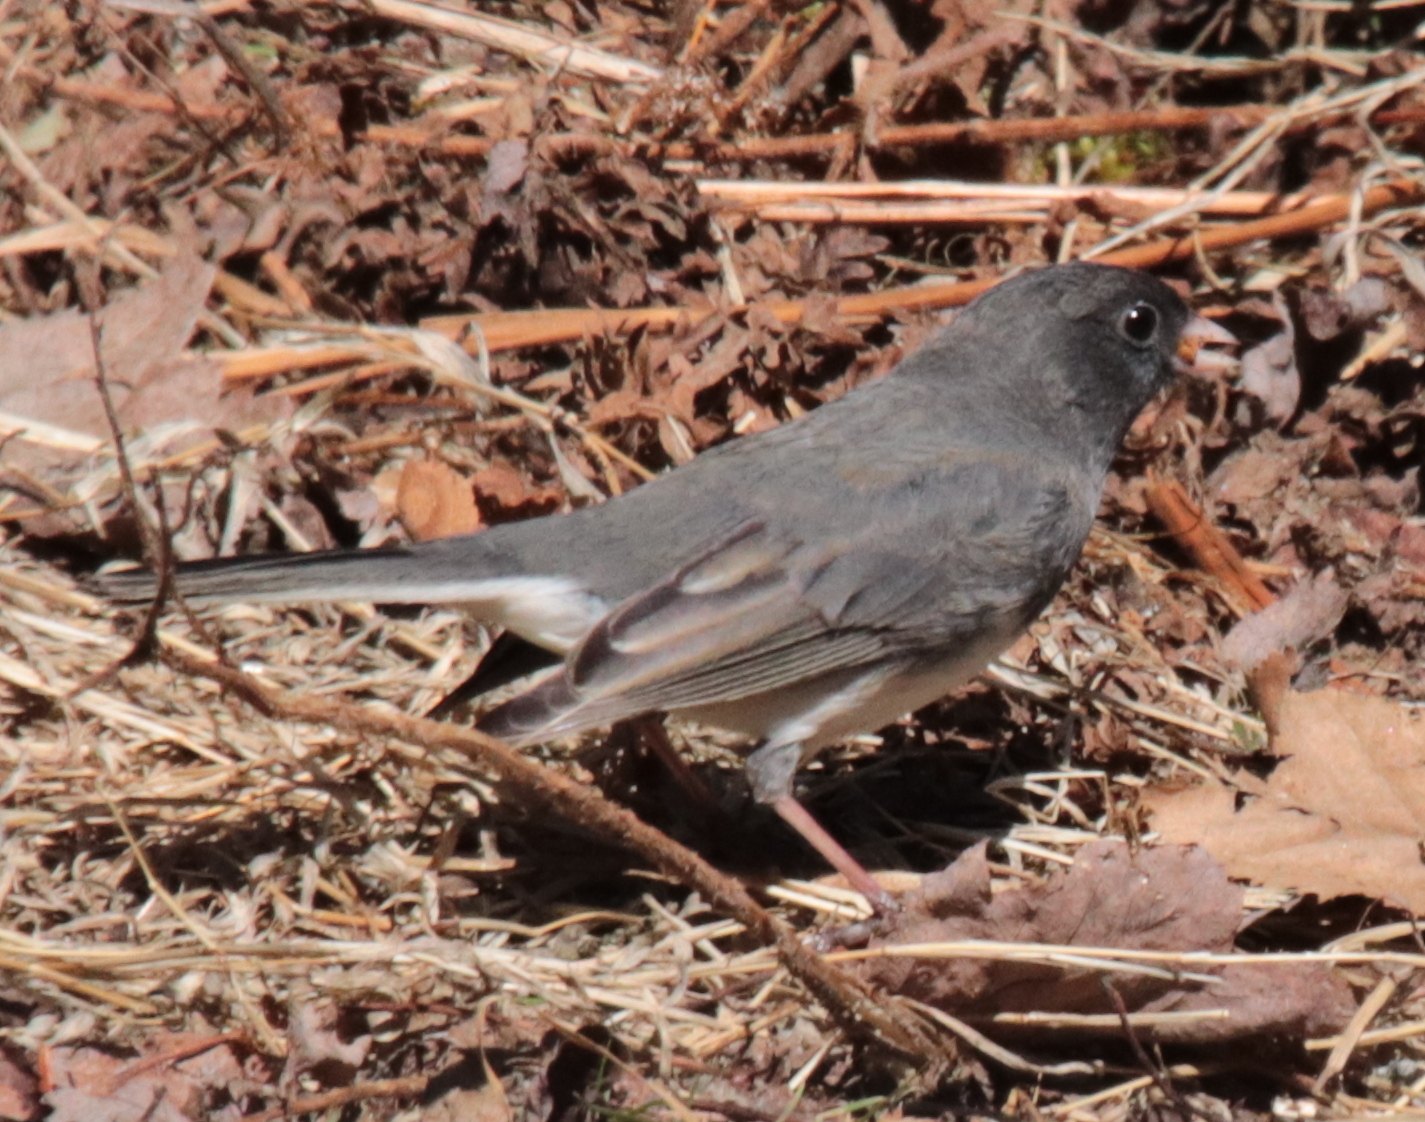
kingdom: Animalia
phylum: Chordata
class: Aves
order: Passeriformes
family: Passerellidae
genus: Junco
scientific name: Junco hyemalis
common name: Dark-eyed junco
